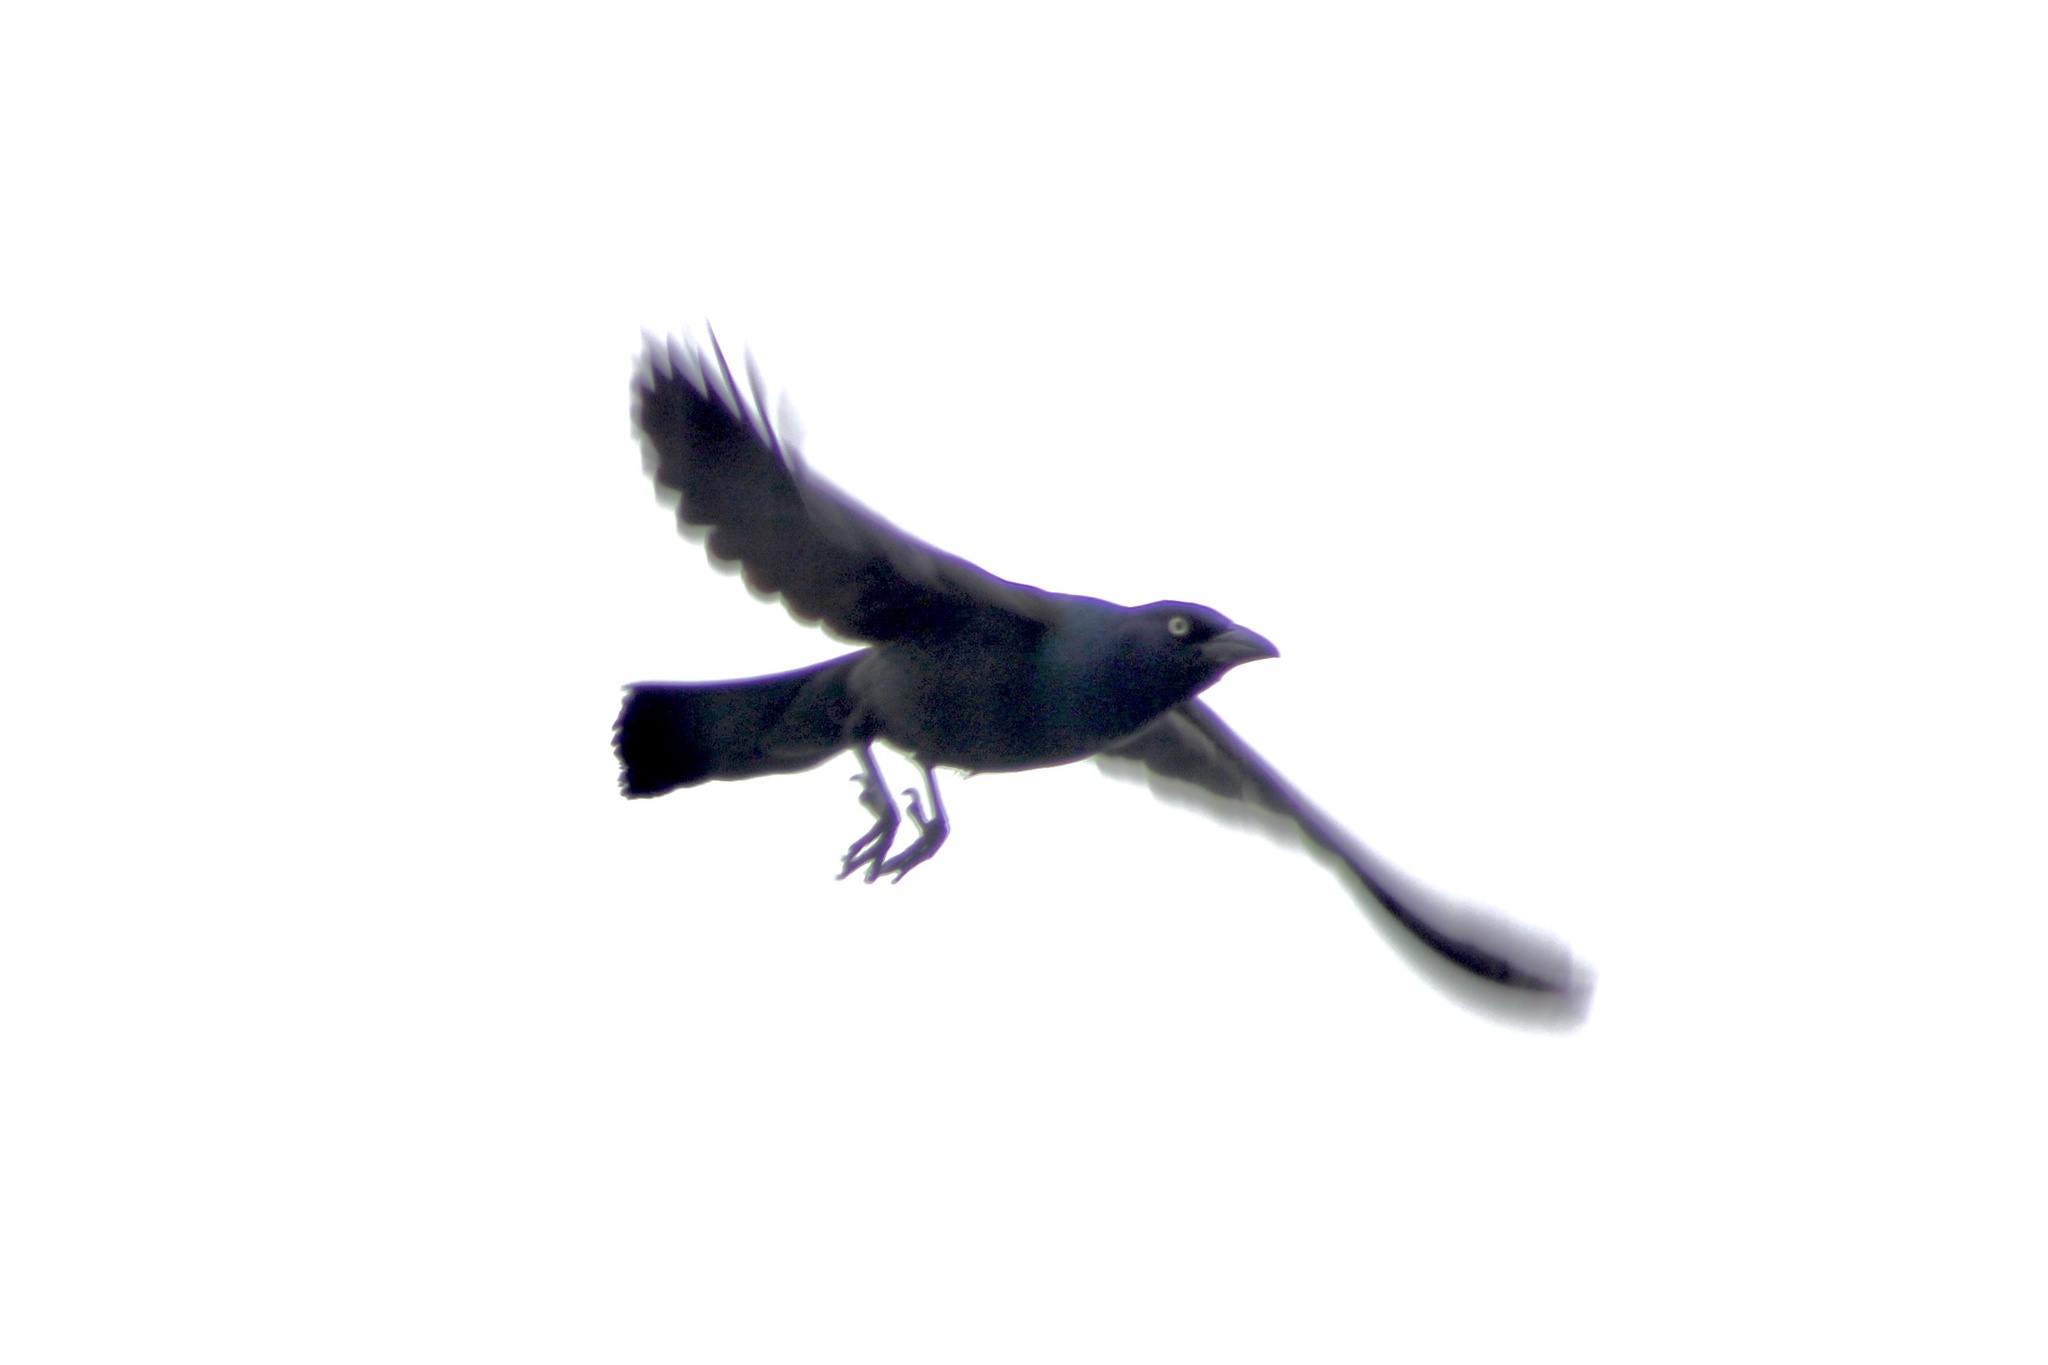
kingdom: Animalia
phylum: Chordata
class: Aves
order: Passeriformes
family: Icteridae
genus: Quiscalus
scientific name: Quiscalus quiscula
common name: Common grackle
